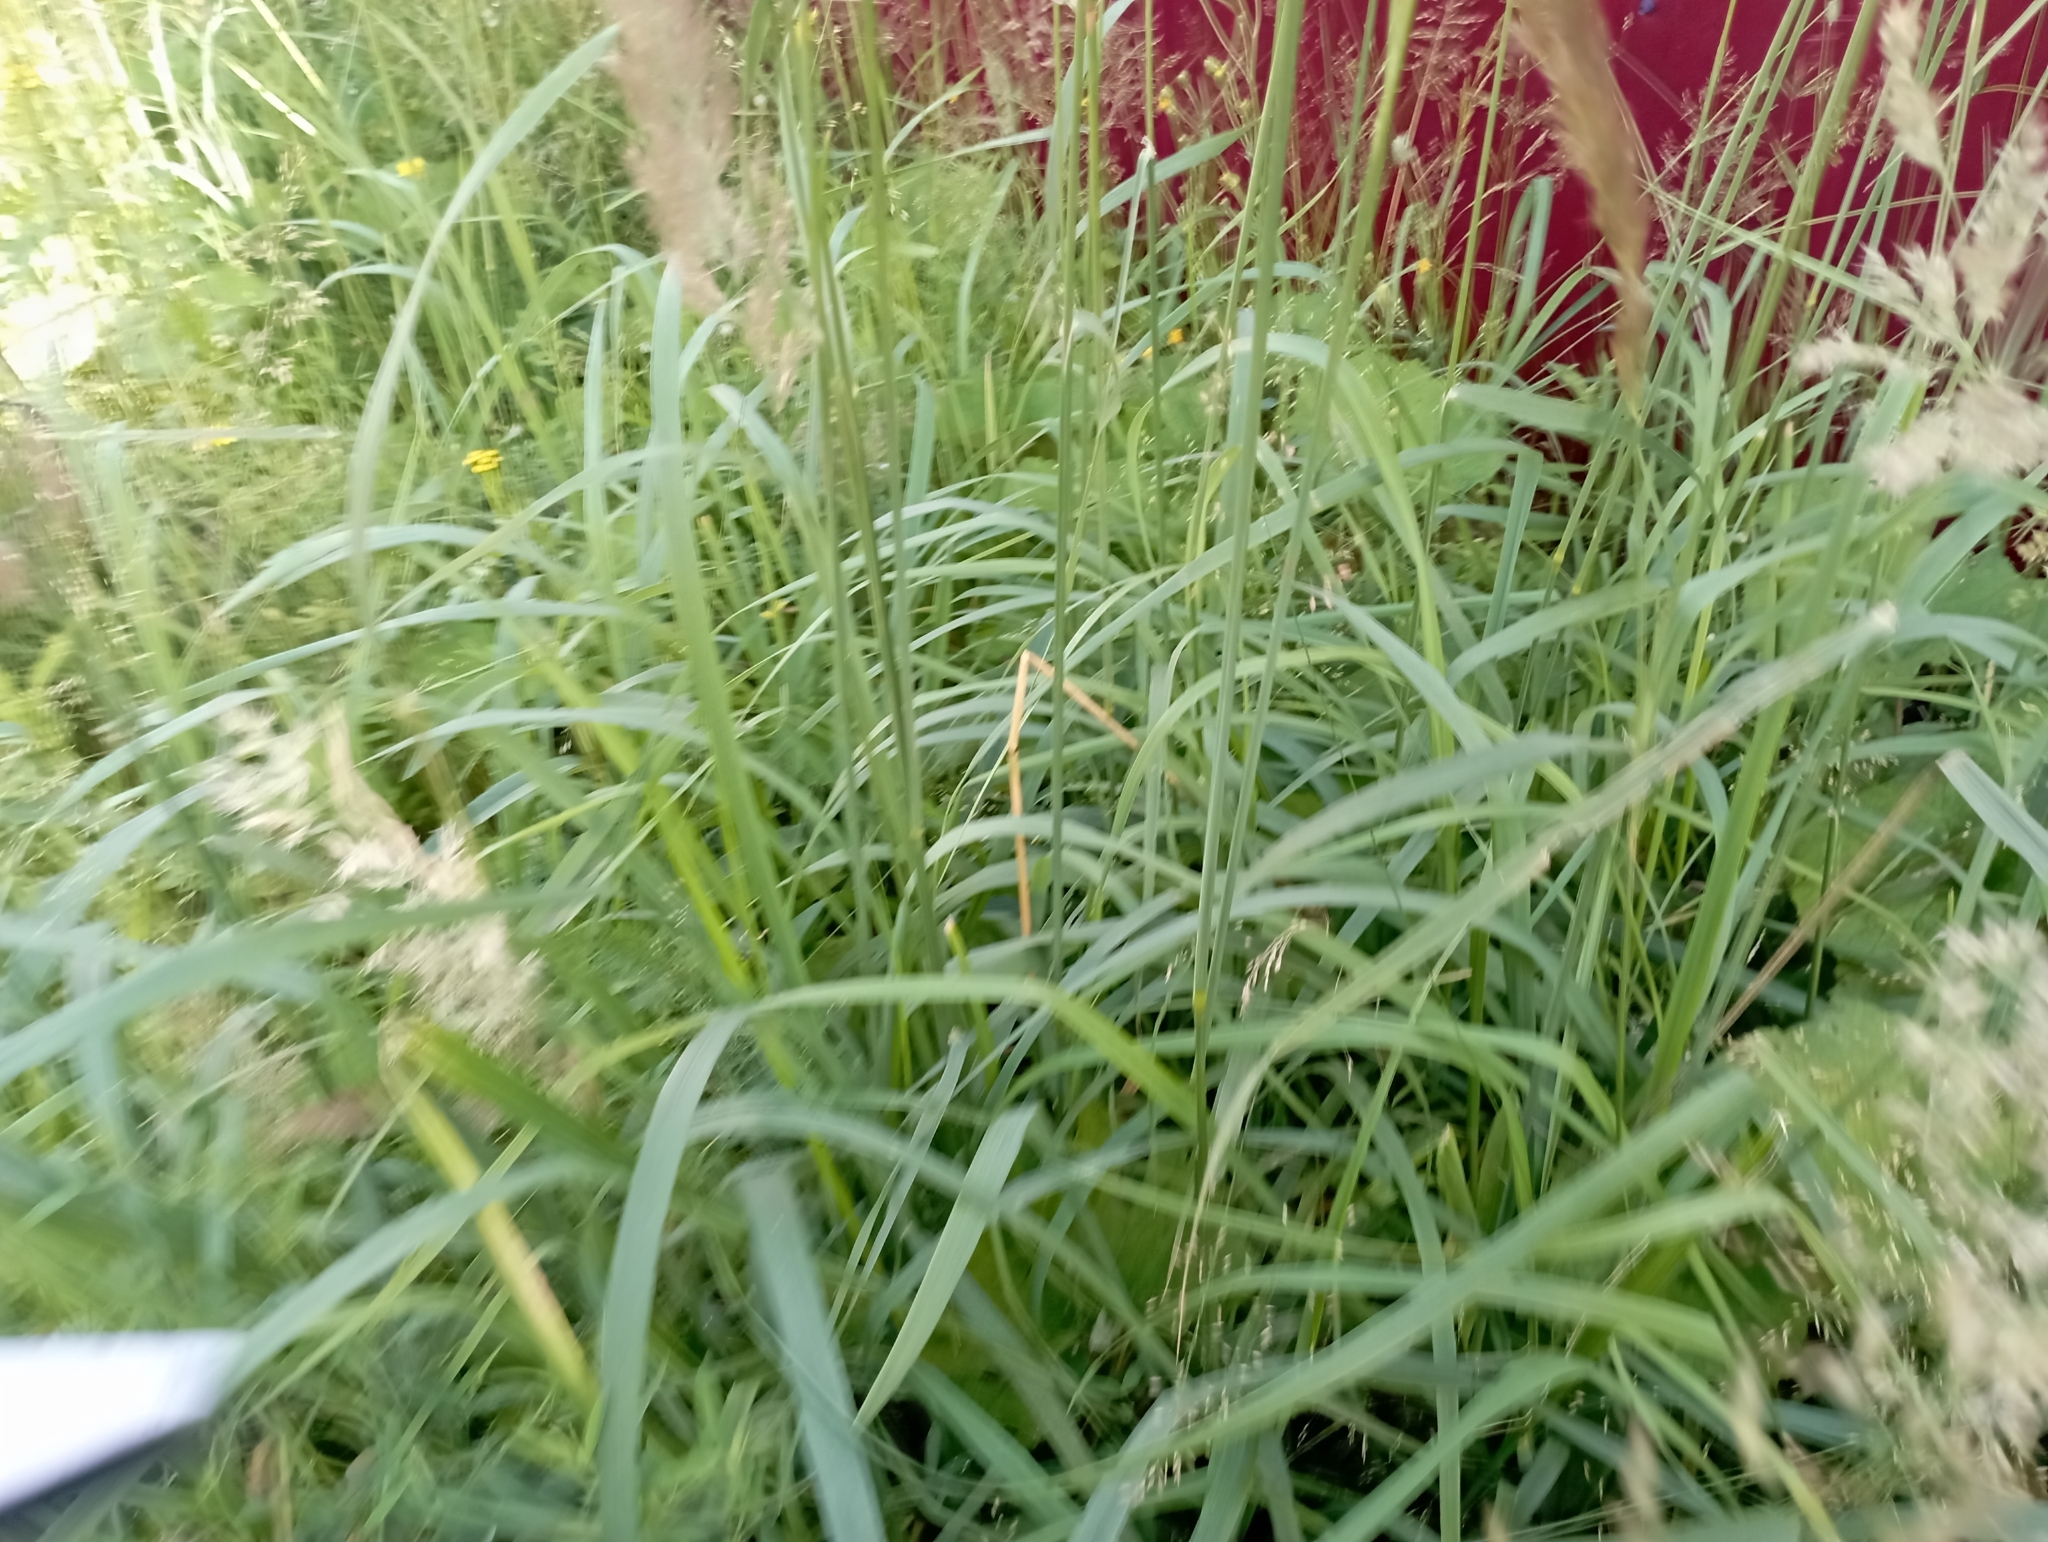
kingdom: Plantae
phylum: Tracheophyta
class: Liliopsida
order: Poales
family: Poaceae
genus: Calamagrostis
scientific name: Calamagrostis epigejos
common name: Wood small-reed
